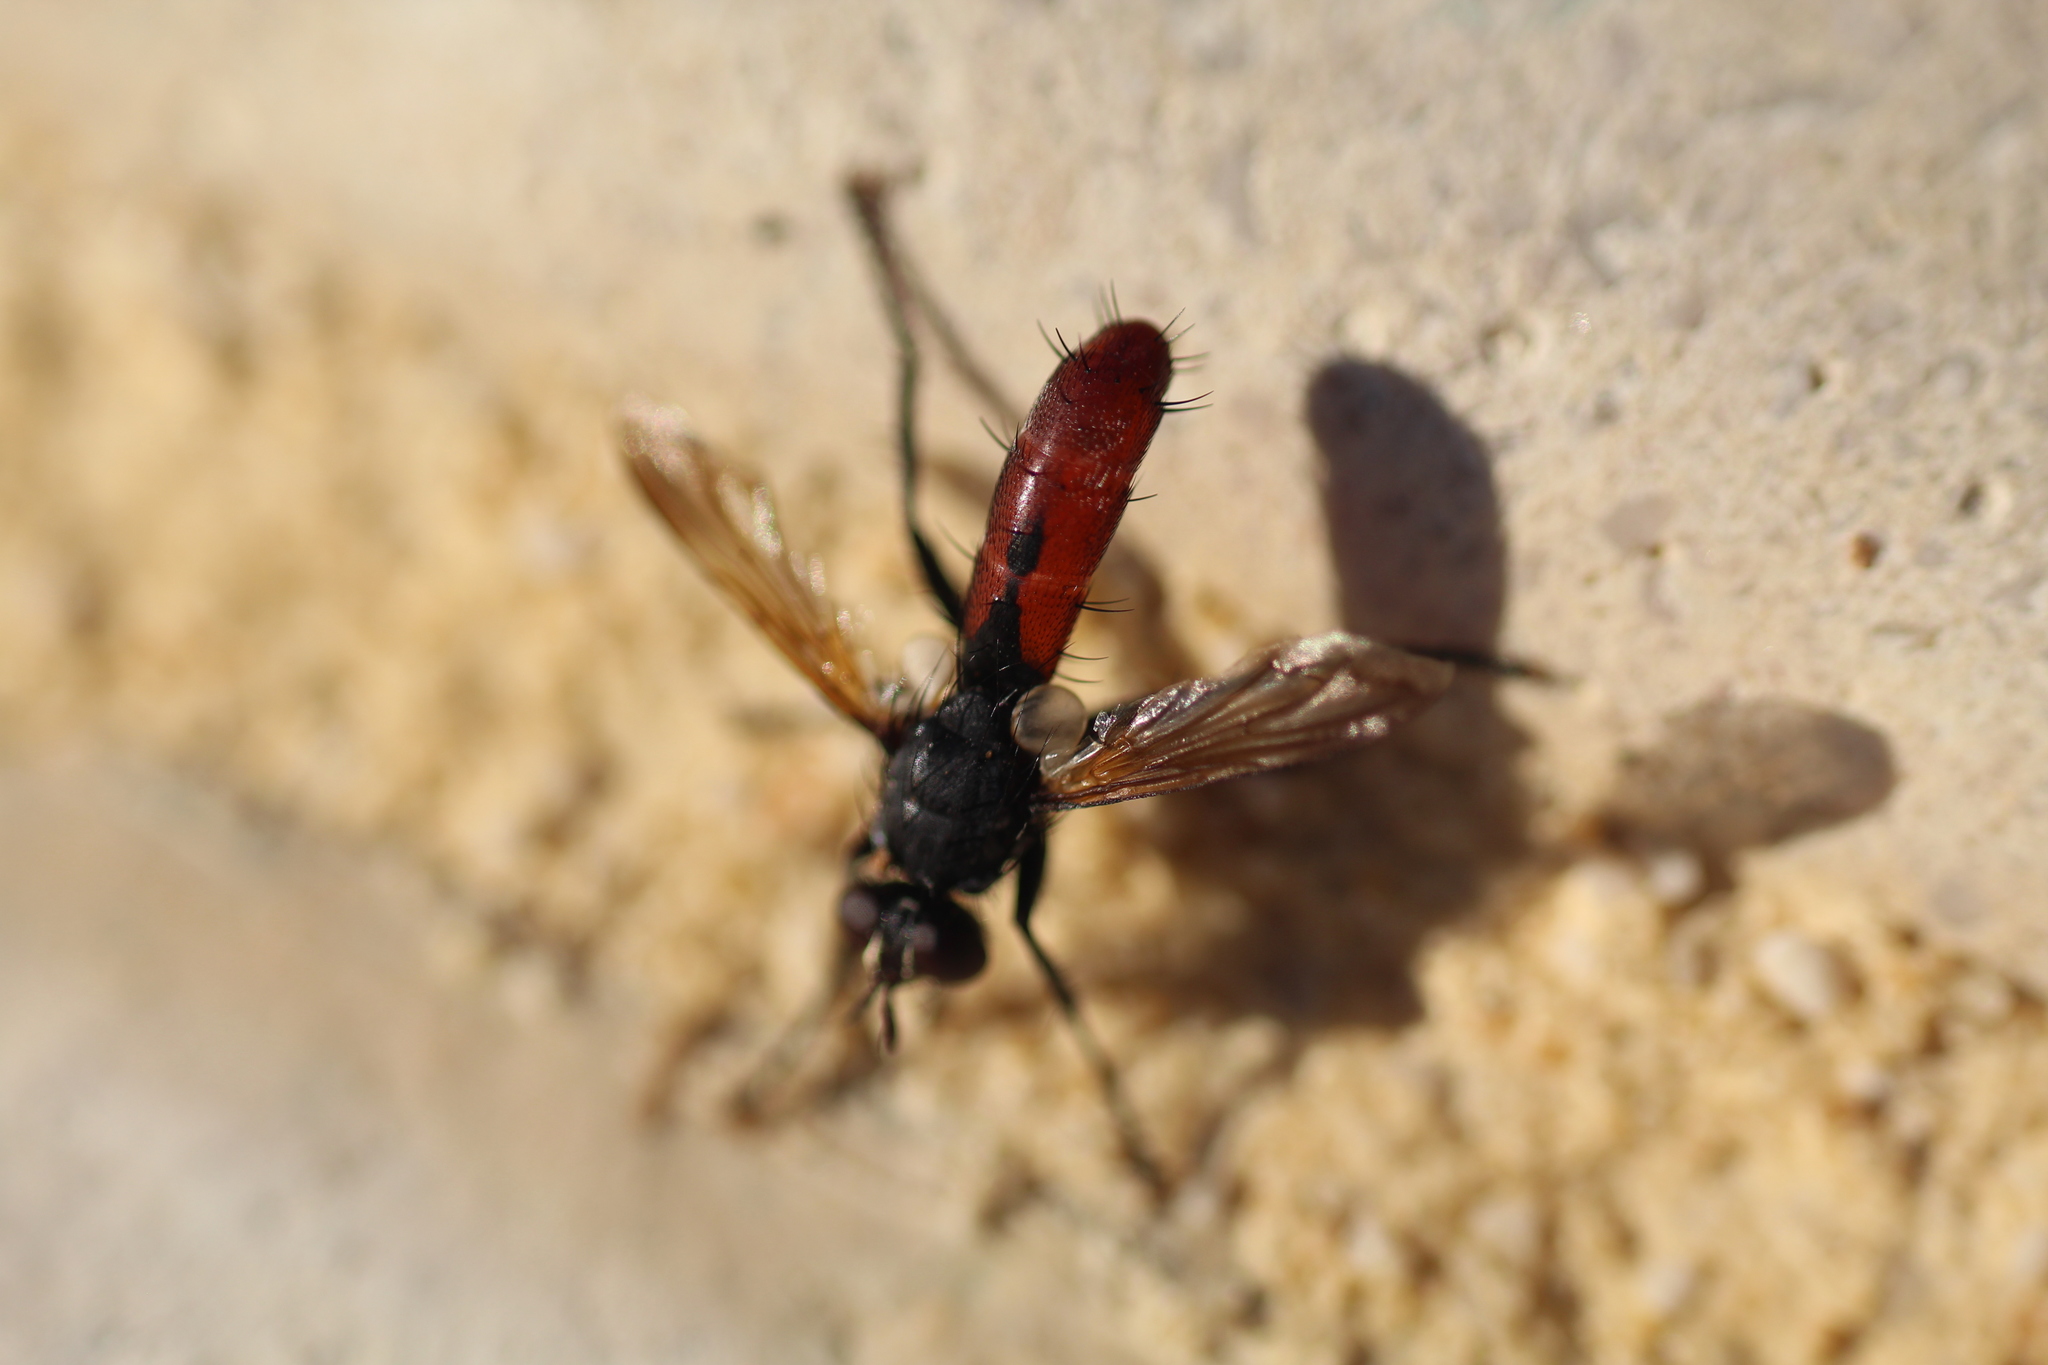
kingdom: Animalia
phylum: Arthropoda
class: Insecta
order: Diptera
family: Tachinidae
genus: Cylindromyia
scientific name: Cylindromyia bicolor
